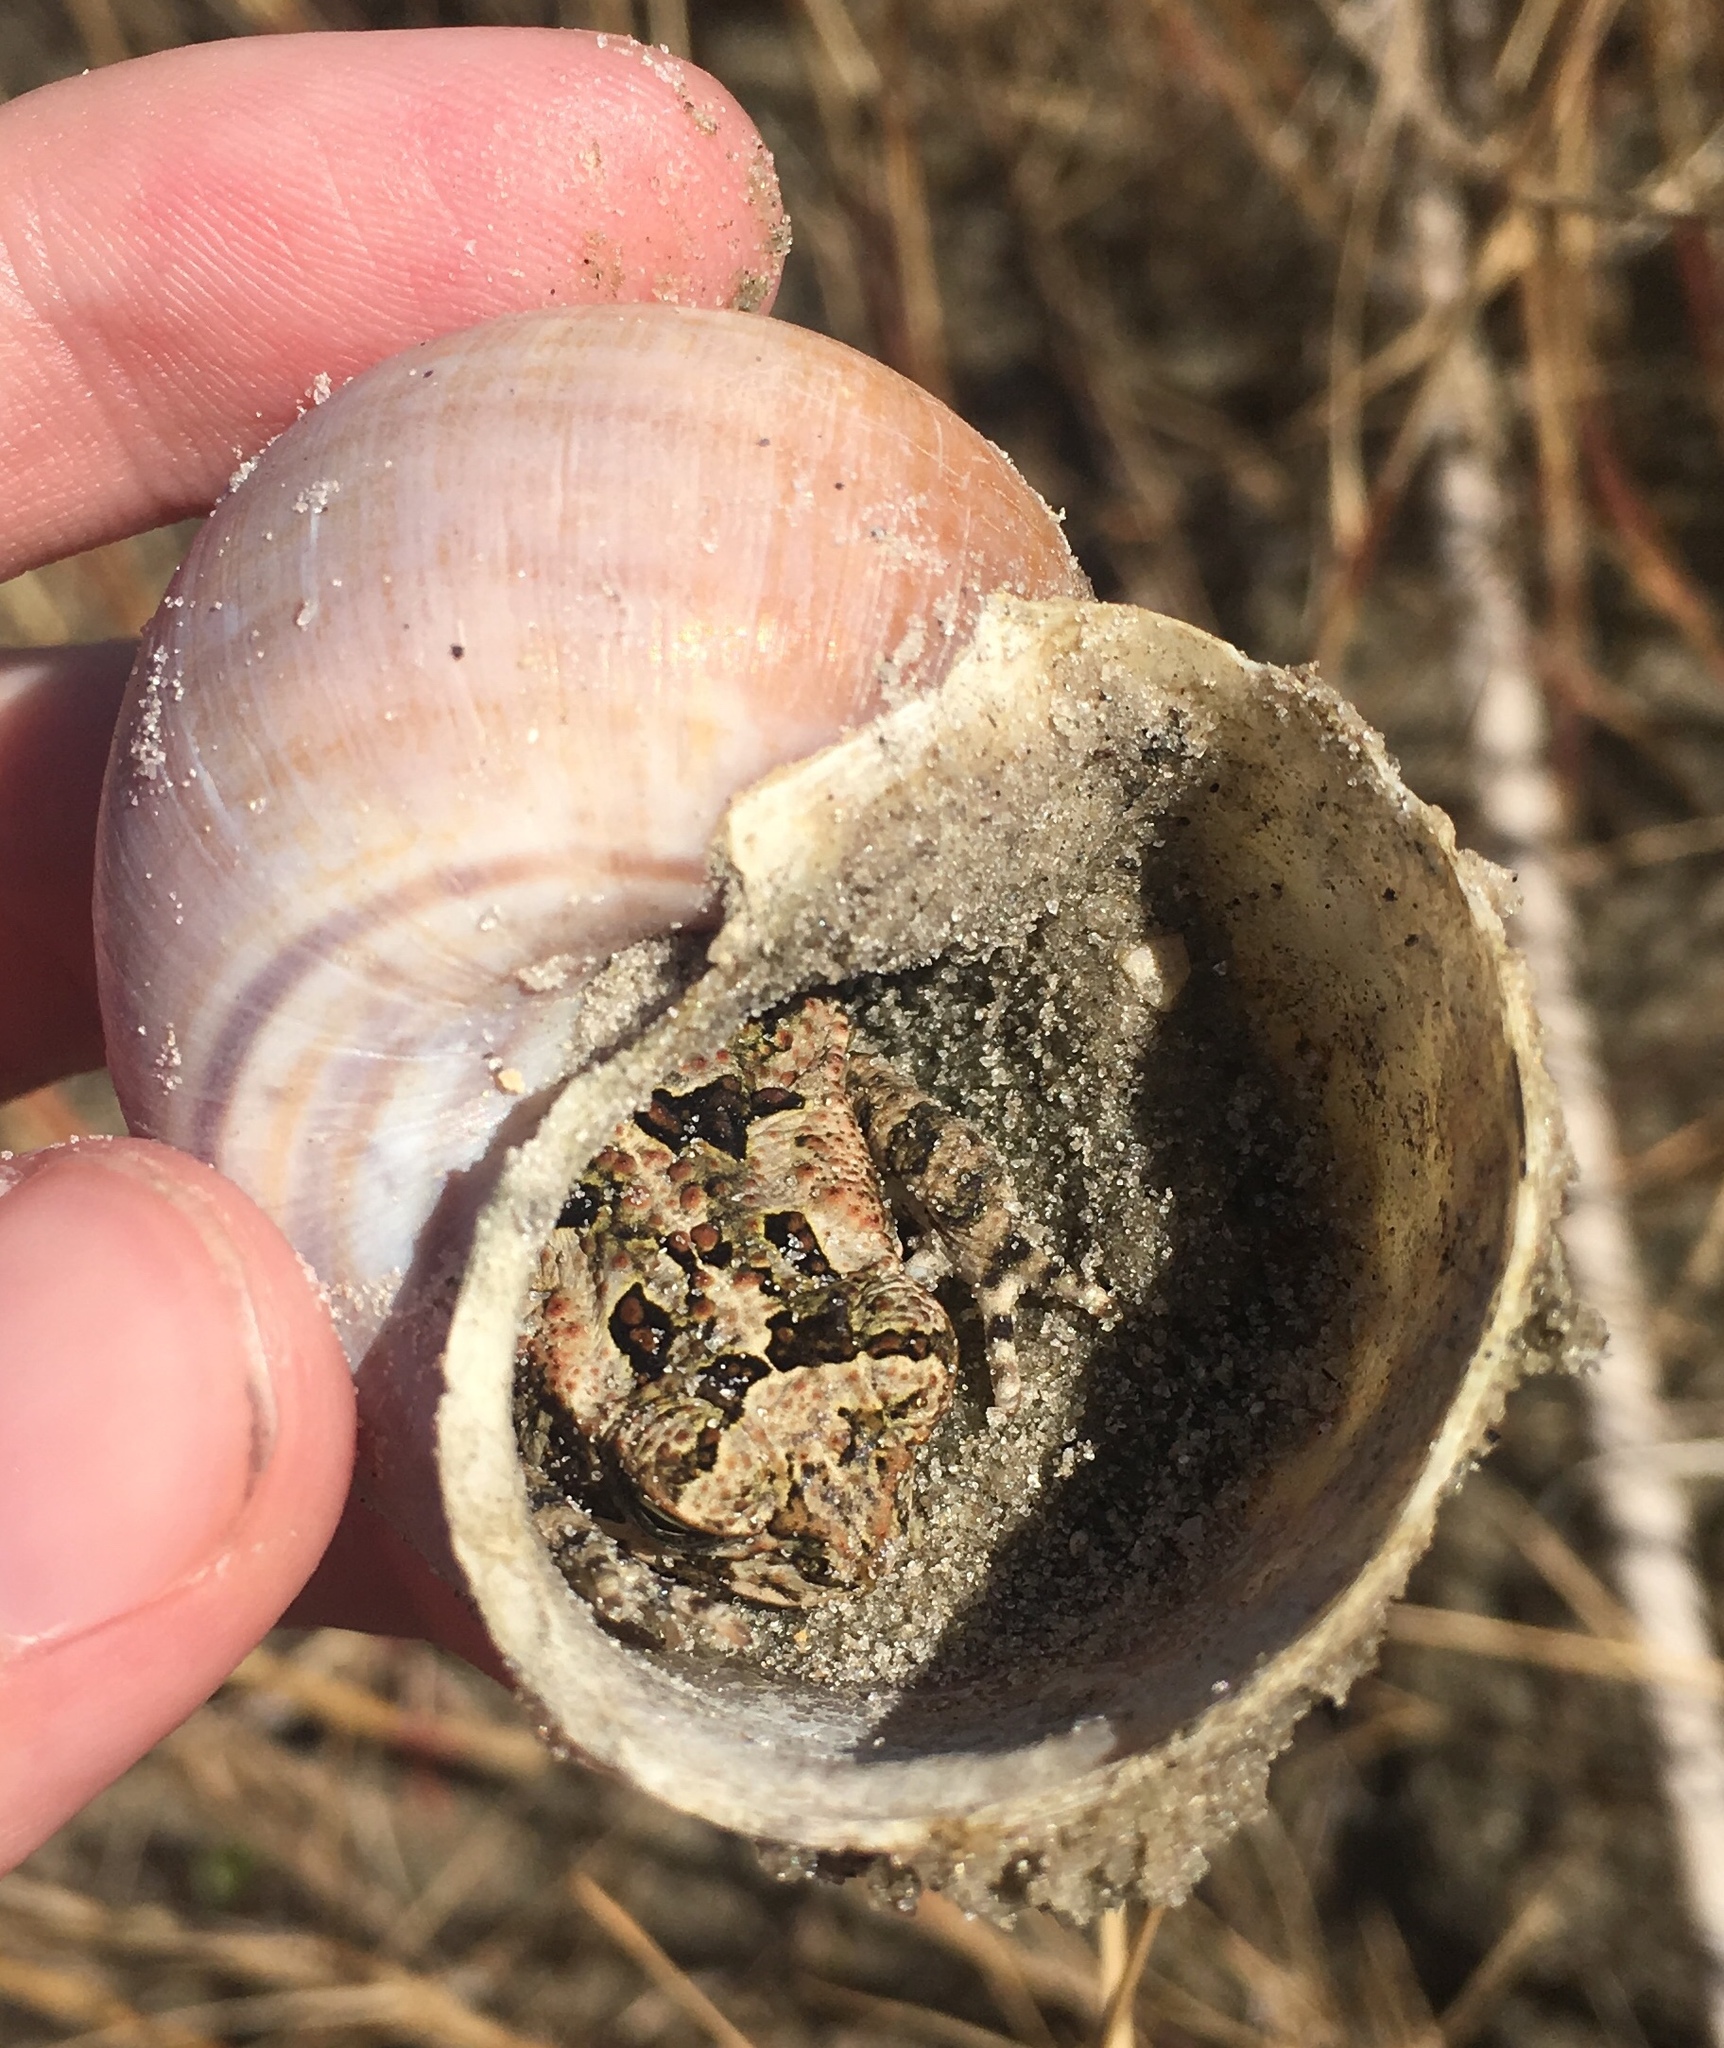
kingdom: Animalia
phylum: Chordata
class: Amphibia
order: Anura
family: Bufonidae
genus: Rhinella
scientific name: Rhinella marina
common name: Cane toad
